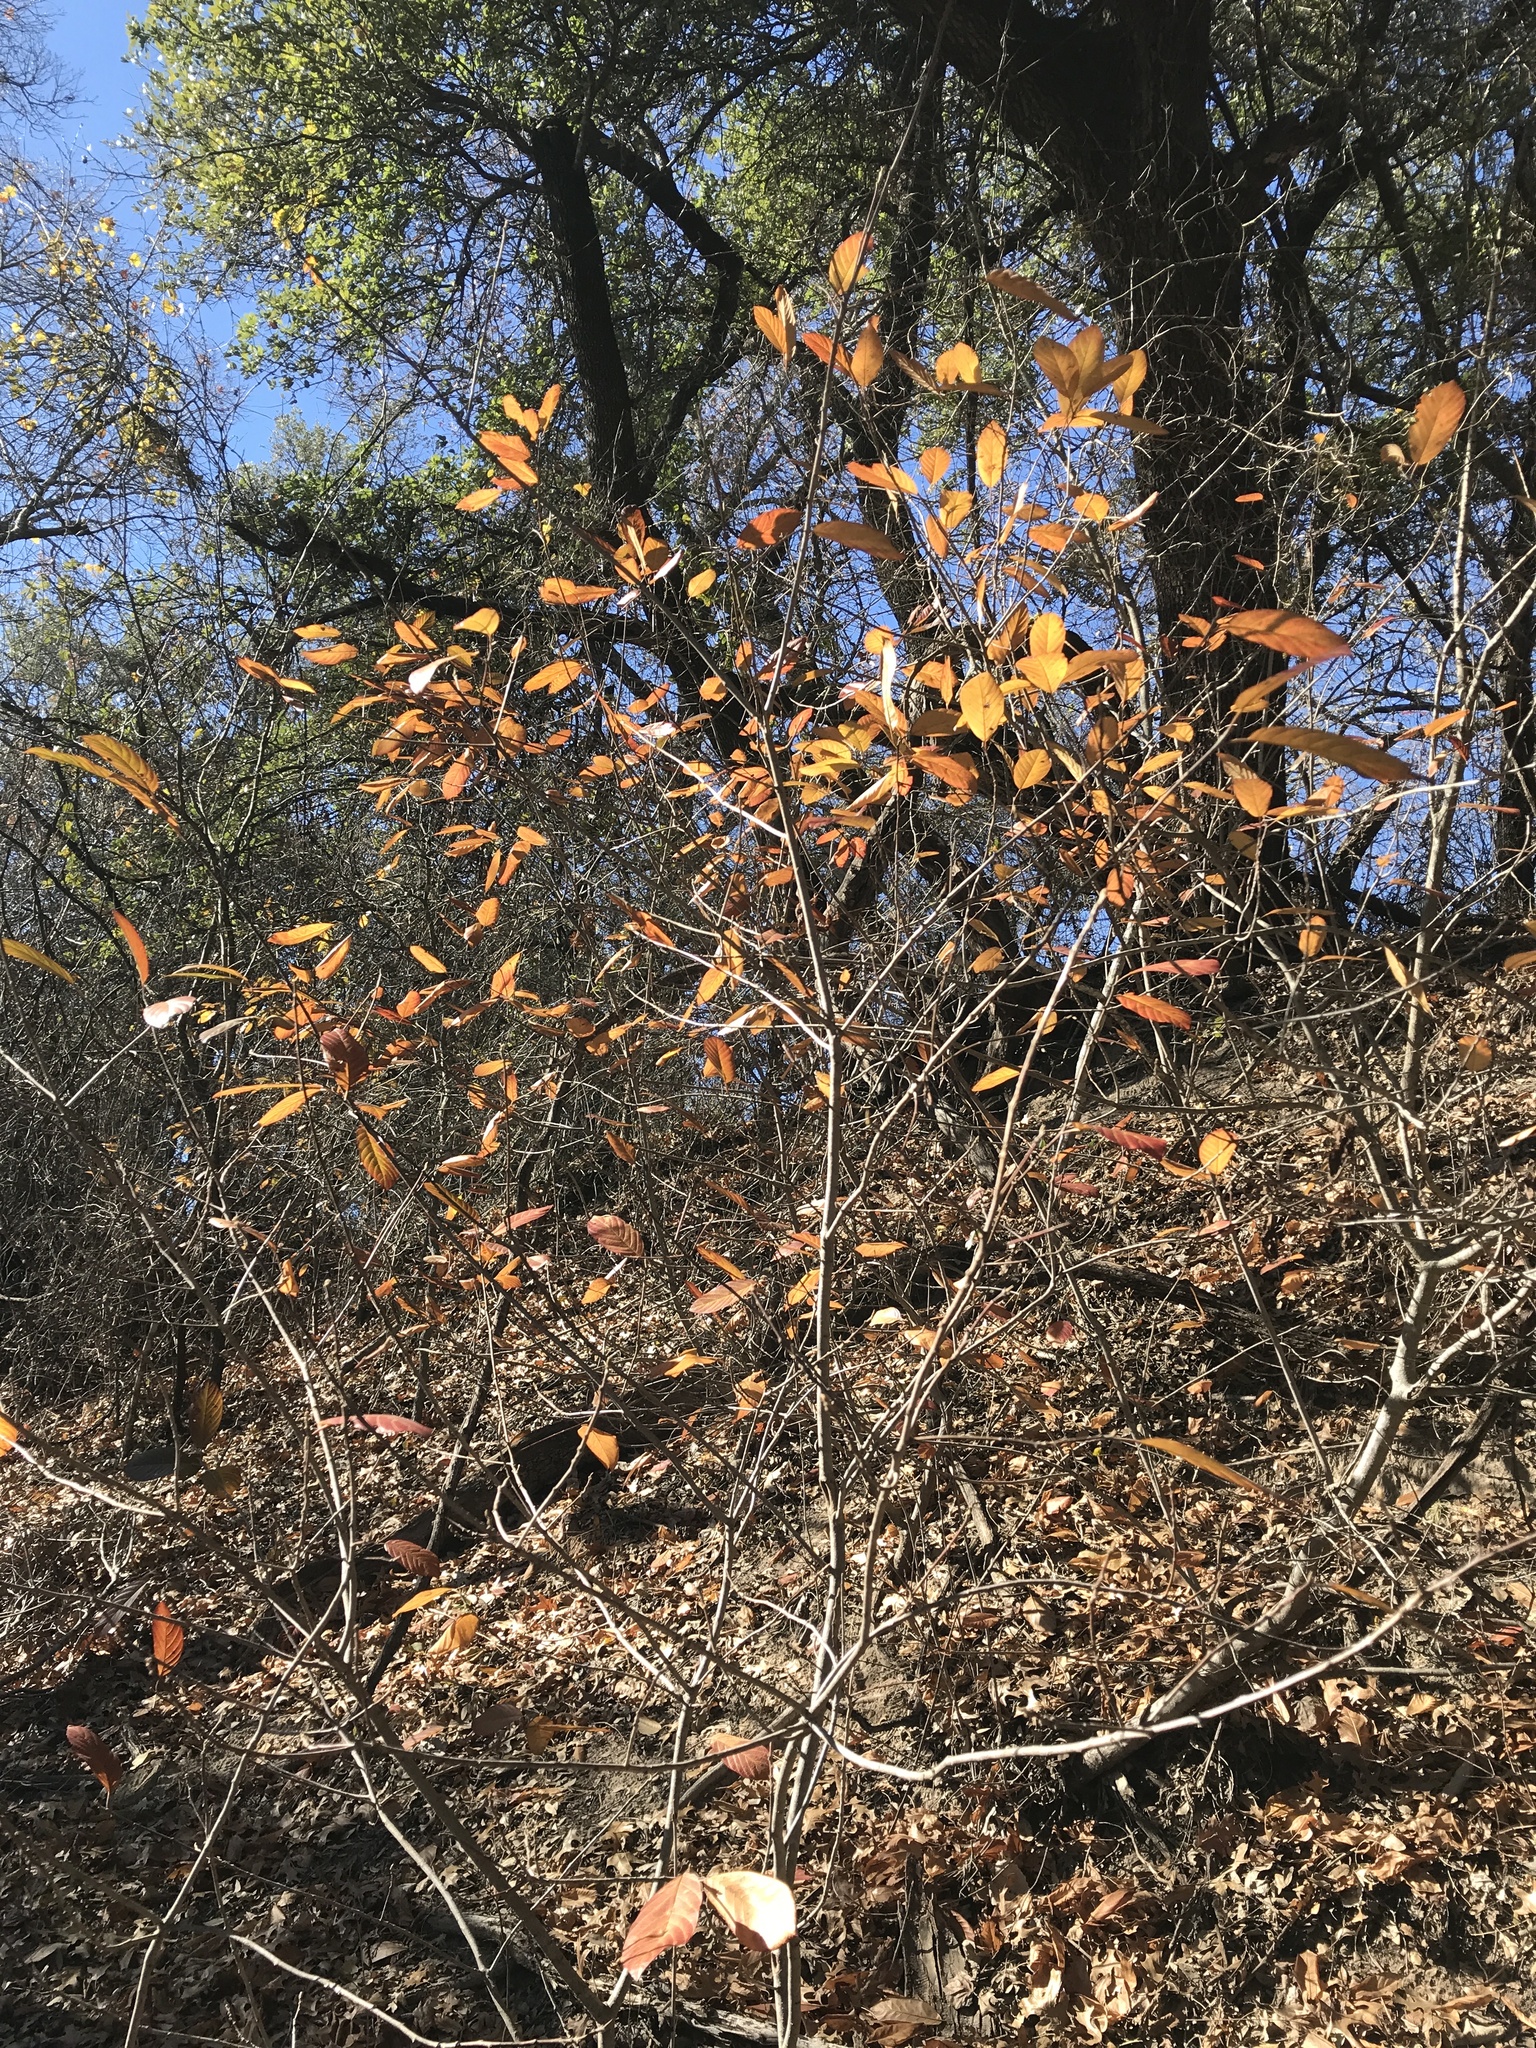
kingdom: Plantae
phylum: Tracheophyta
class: Magnoliopsida
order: Rosales
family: Rhamnaceae
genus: Frangula
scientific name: Frangula caroliniana
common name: Carolina buckthorn
